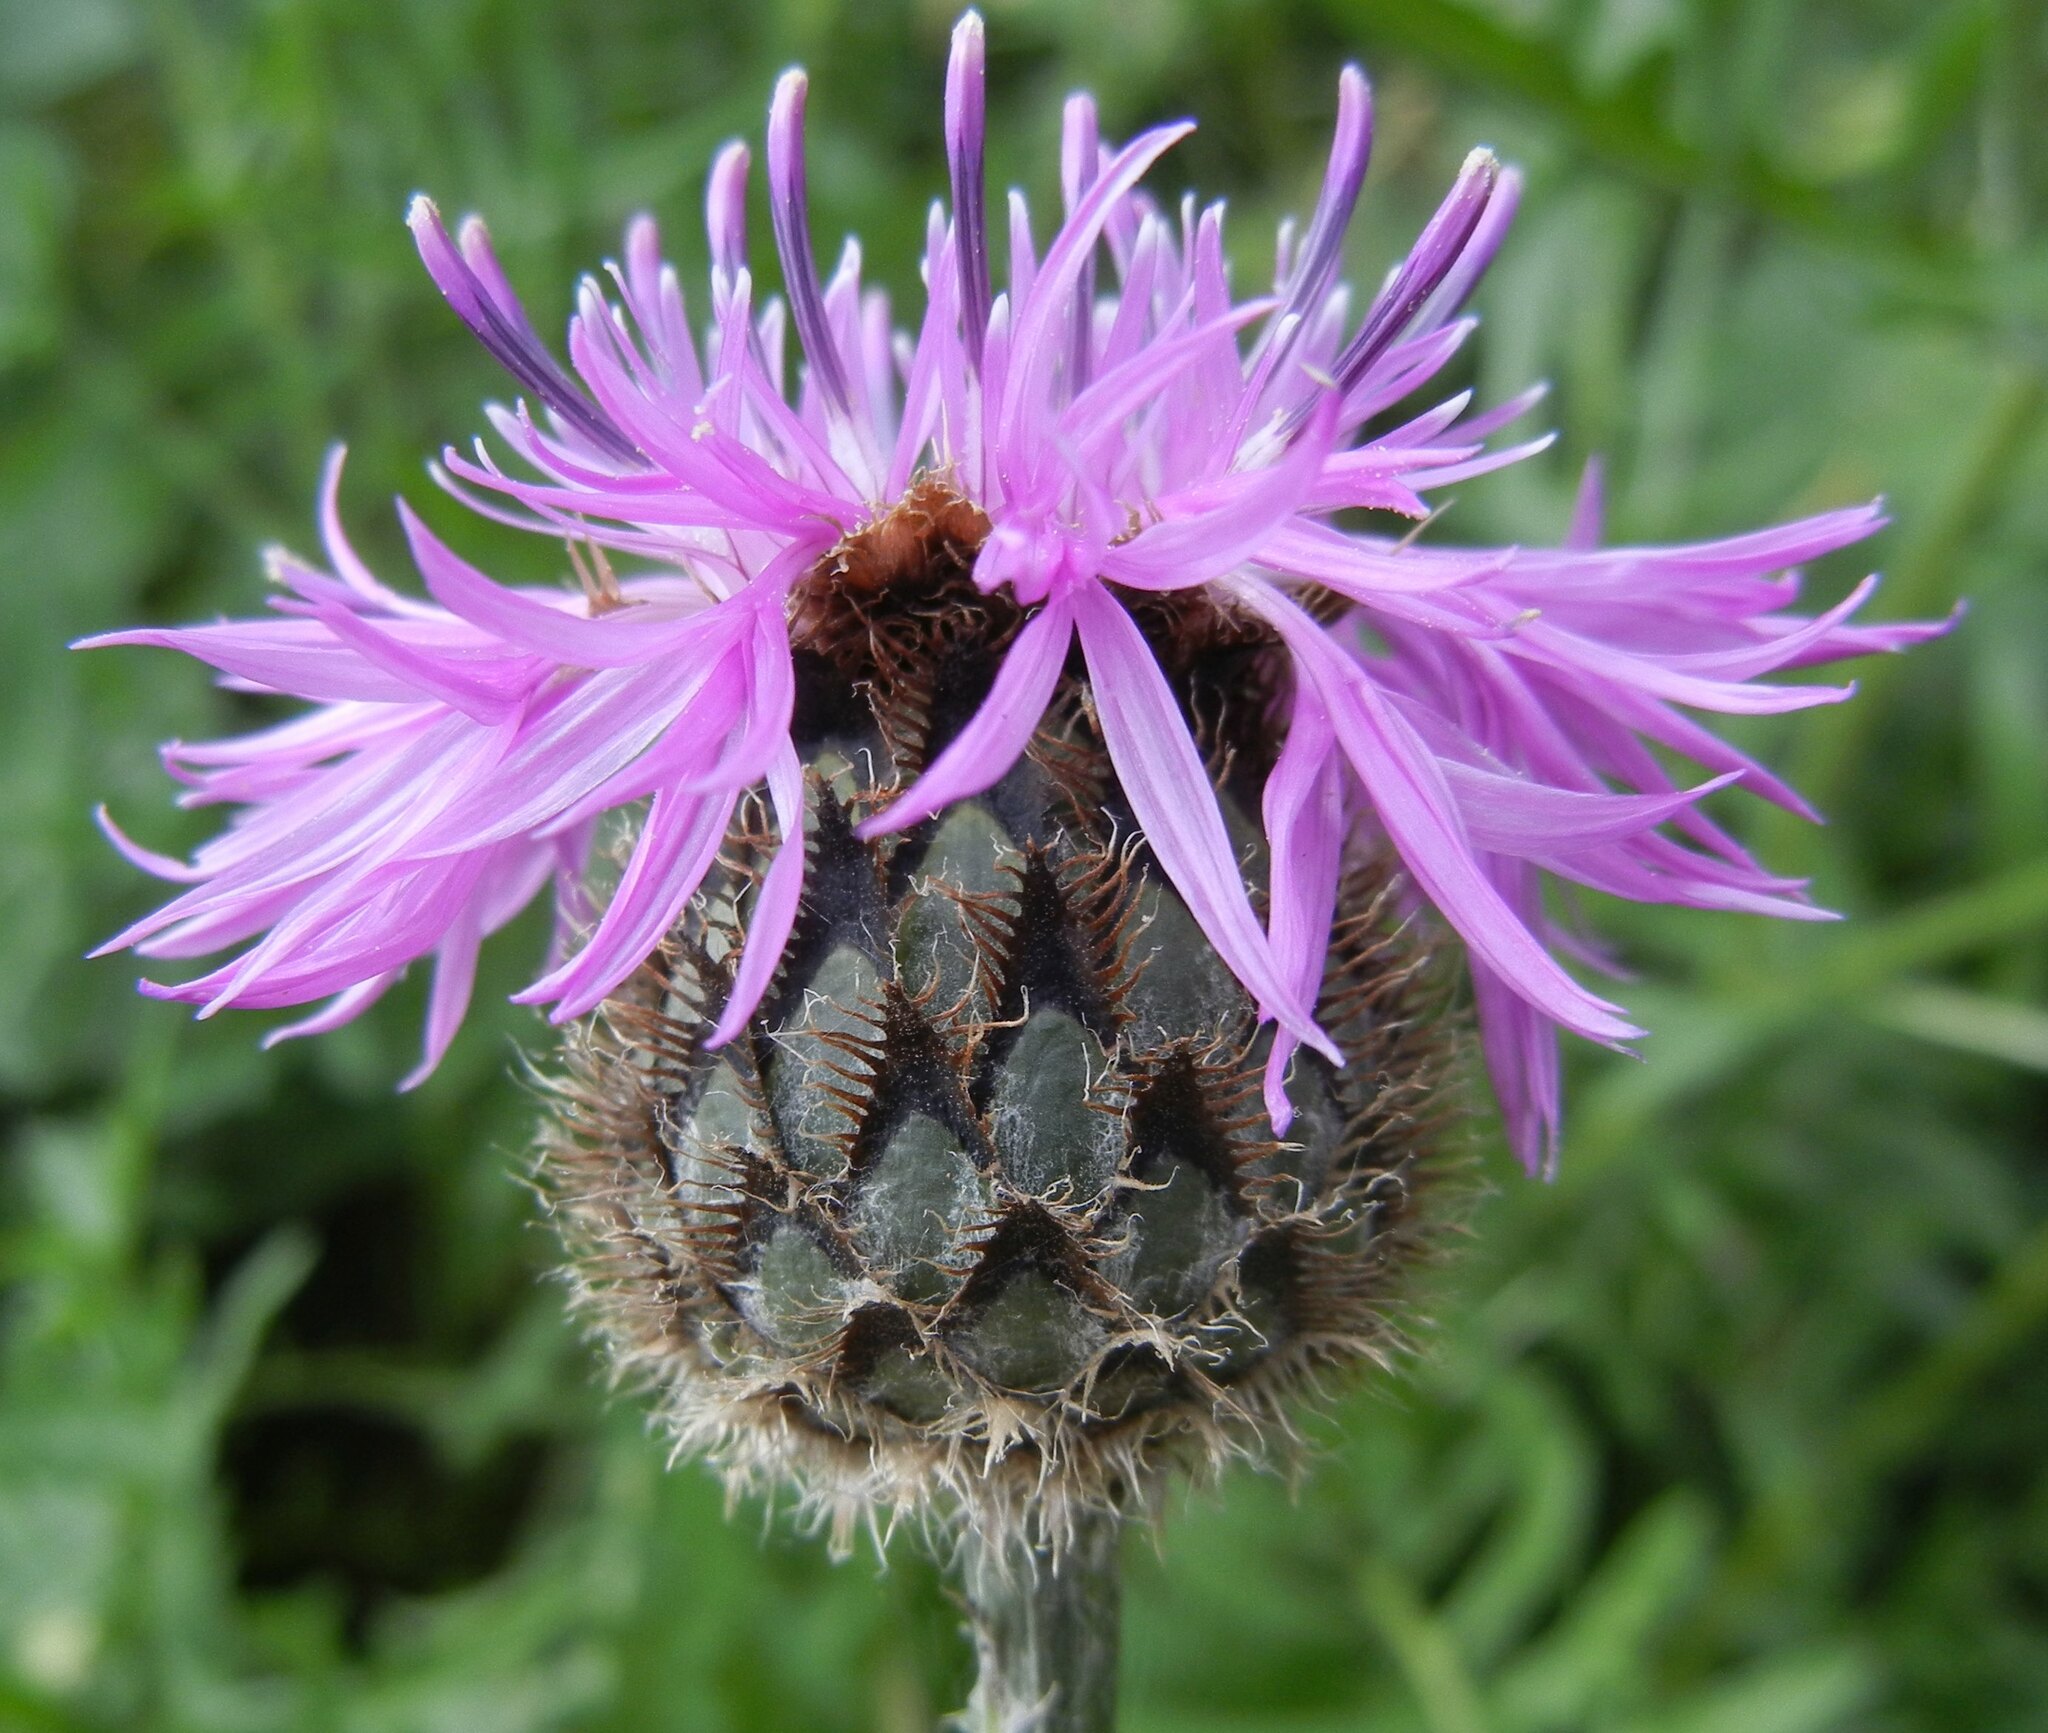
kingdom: Plantae
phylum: Tracheophyta
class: Magnoliopsida
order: Asterales
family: Asteraceae
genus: Centaurea
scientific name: Centaurea scabiosa
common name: Greater knapweed
